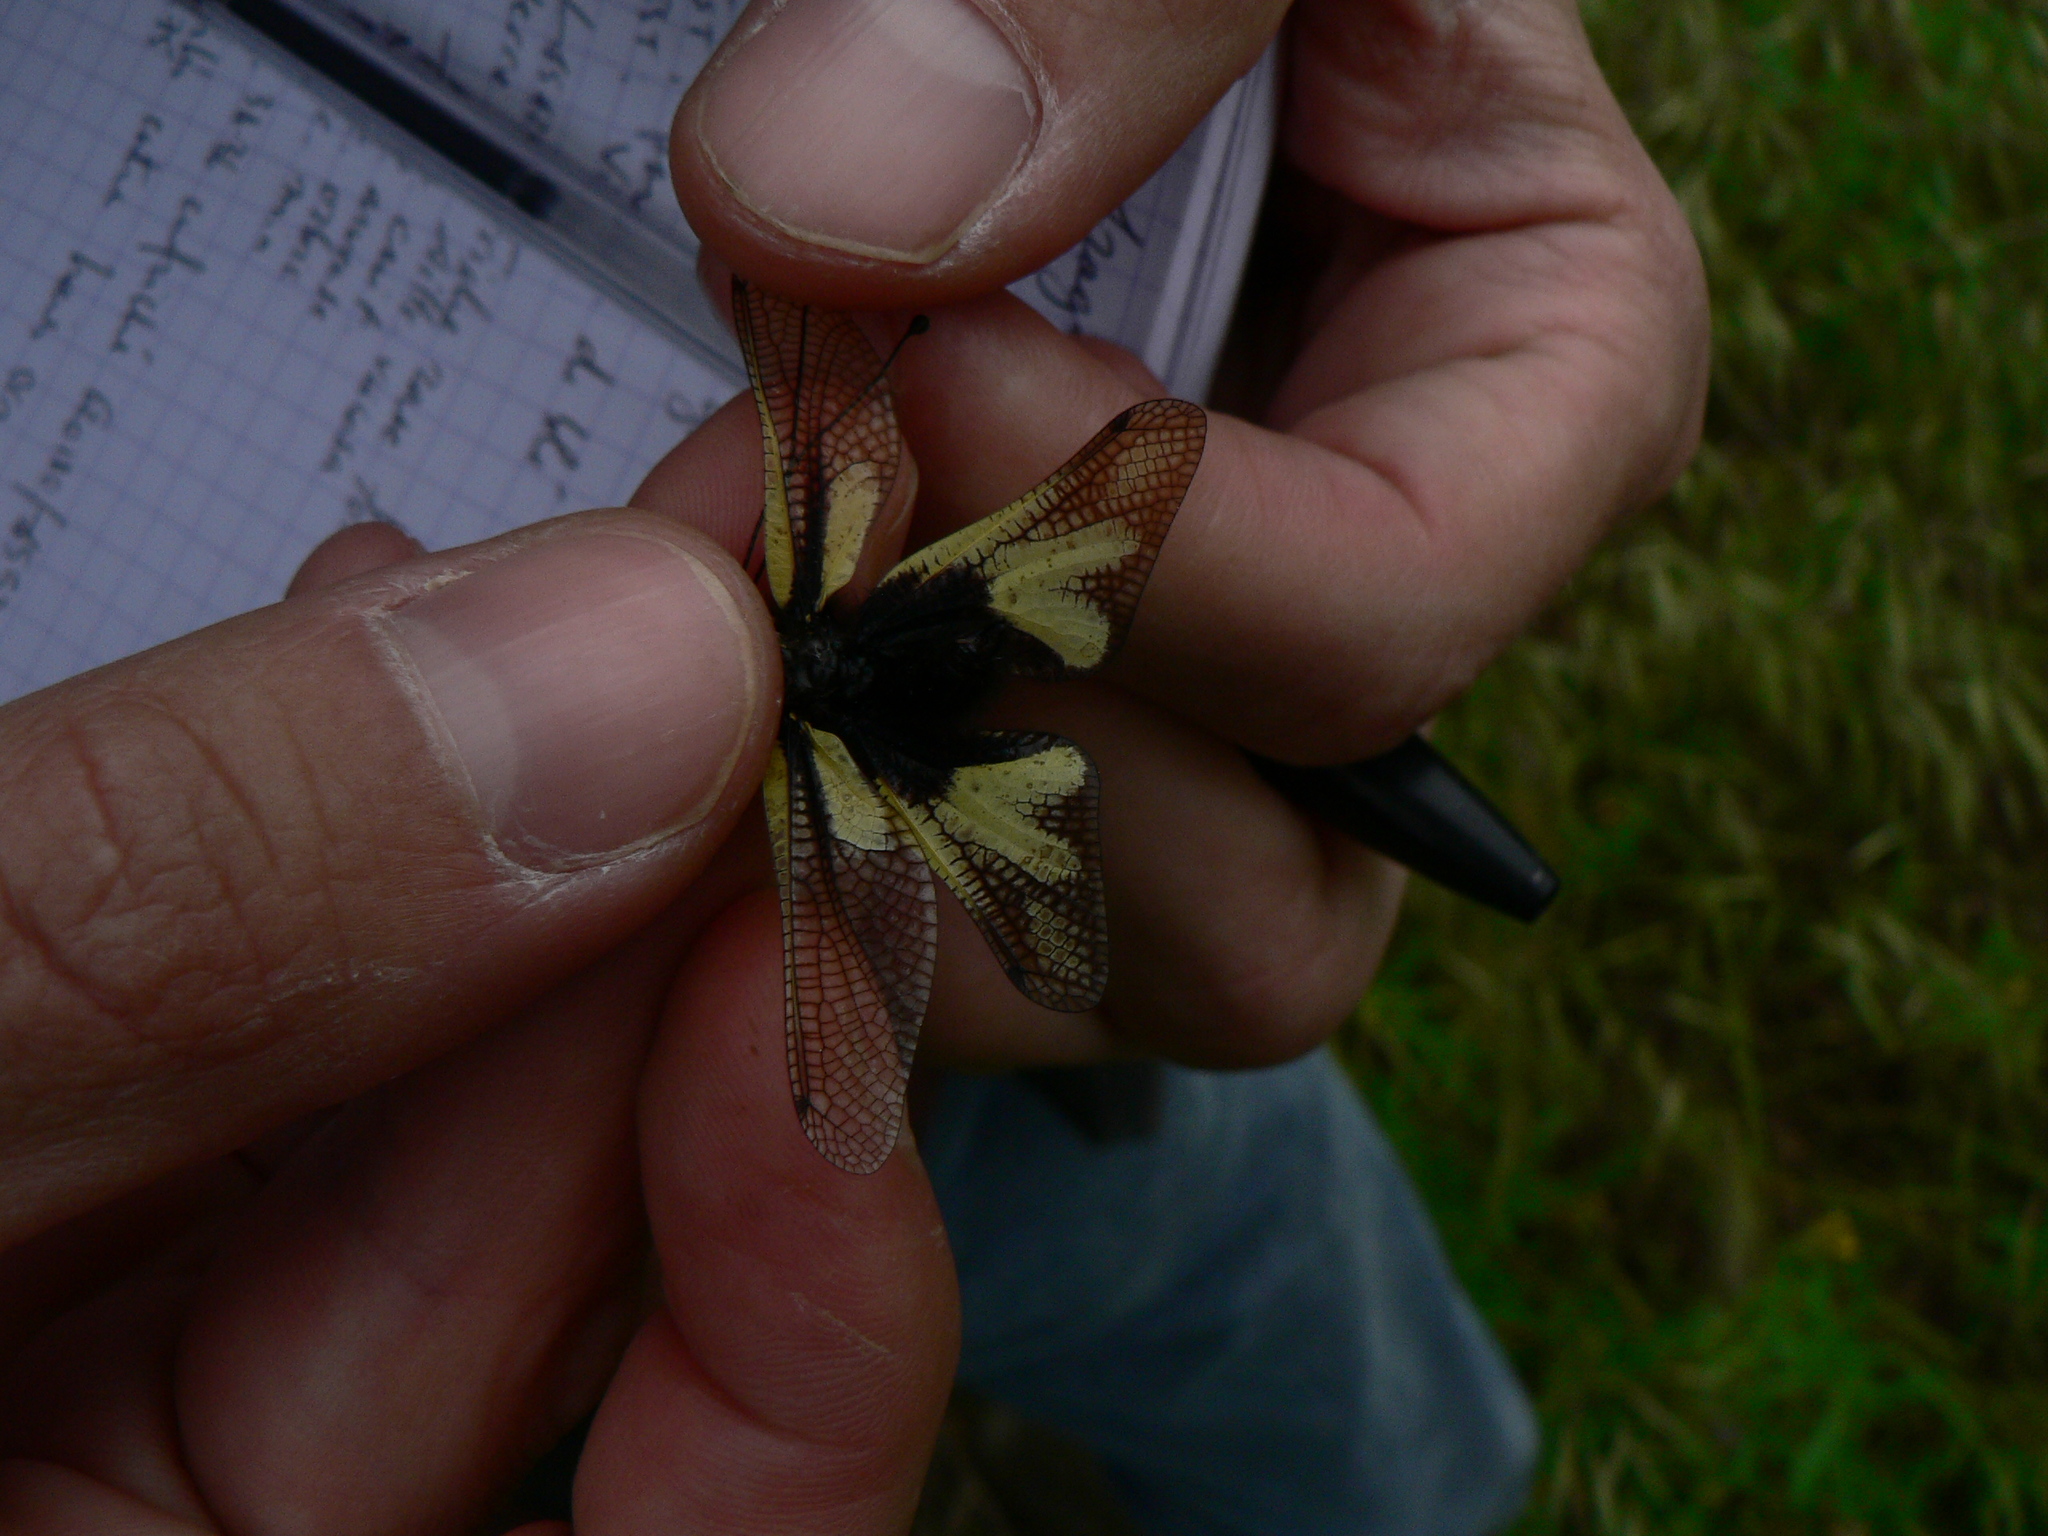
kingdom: Animalia
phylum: Arthropoda
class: Insecta
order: Neuroptera
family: Ascalaphidae
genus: Libelloides
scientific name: Libelloides coccajus
